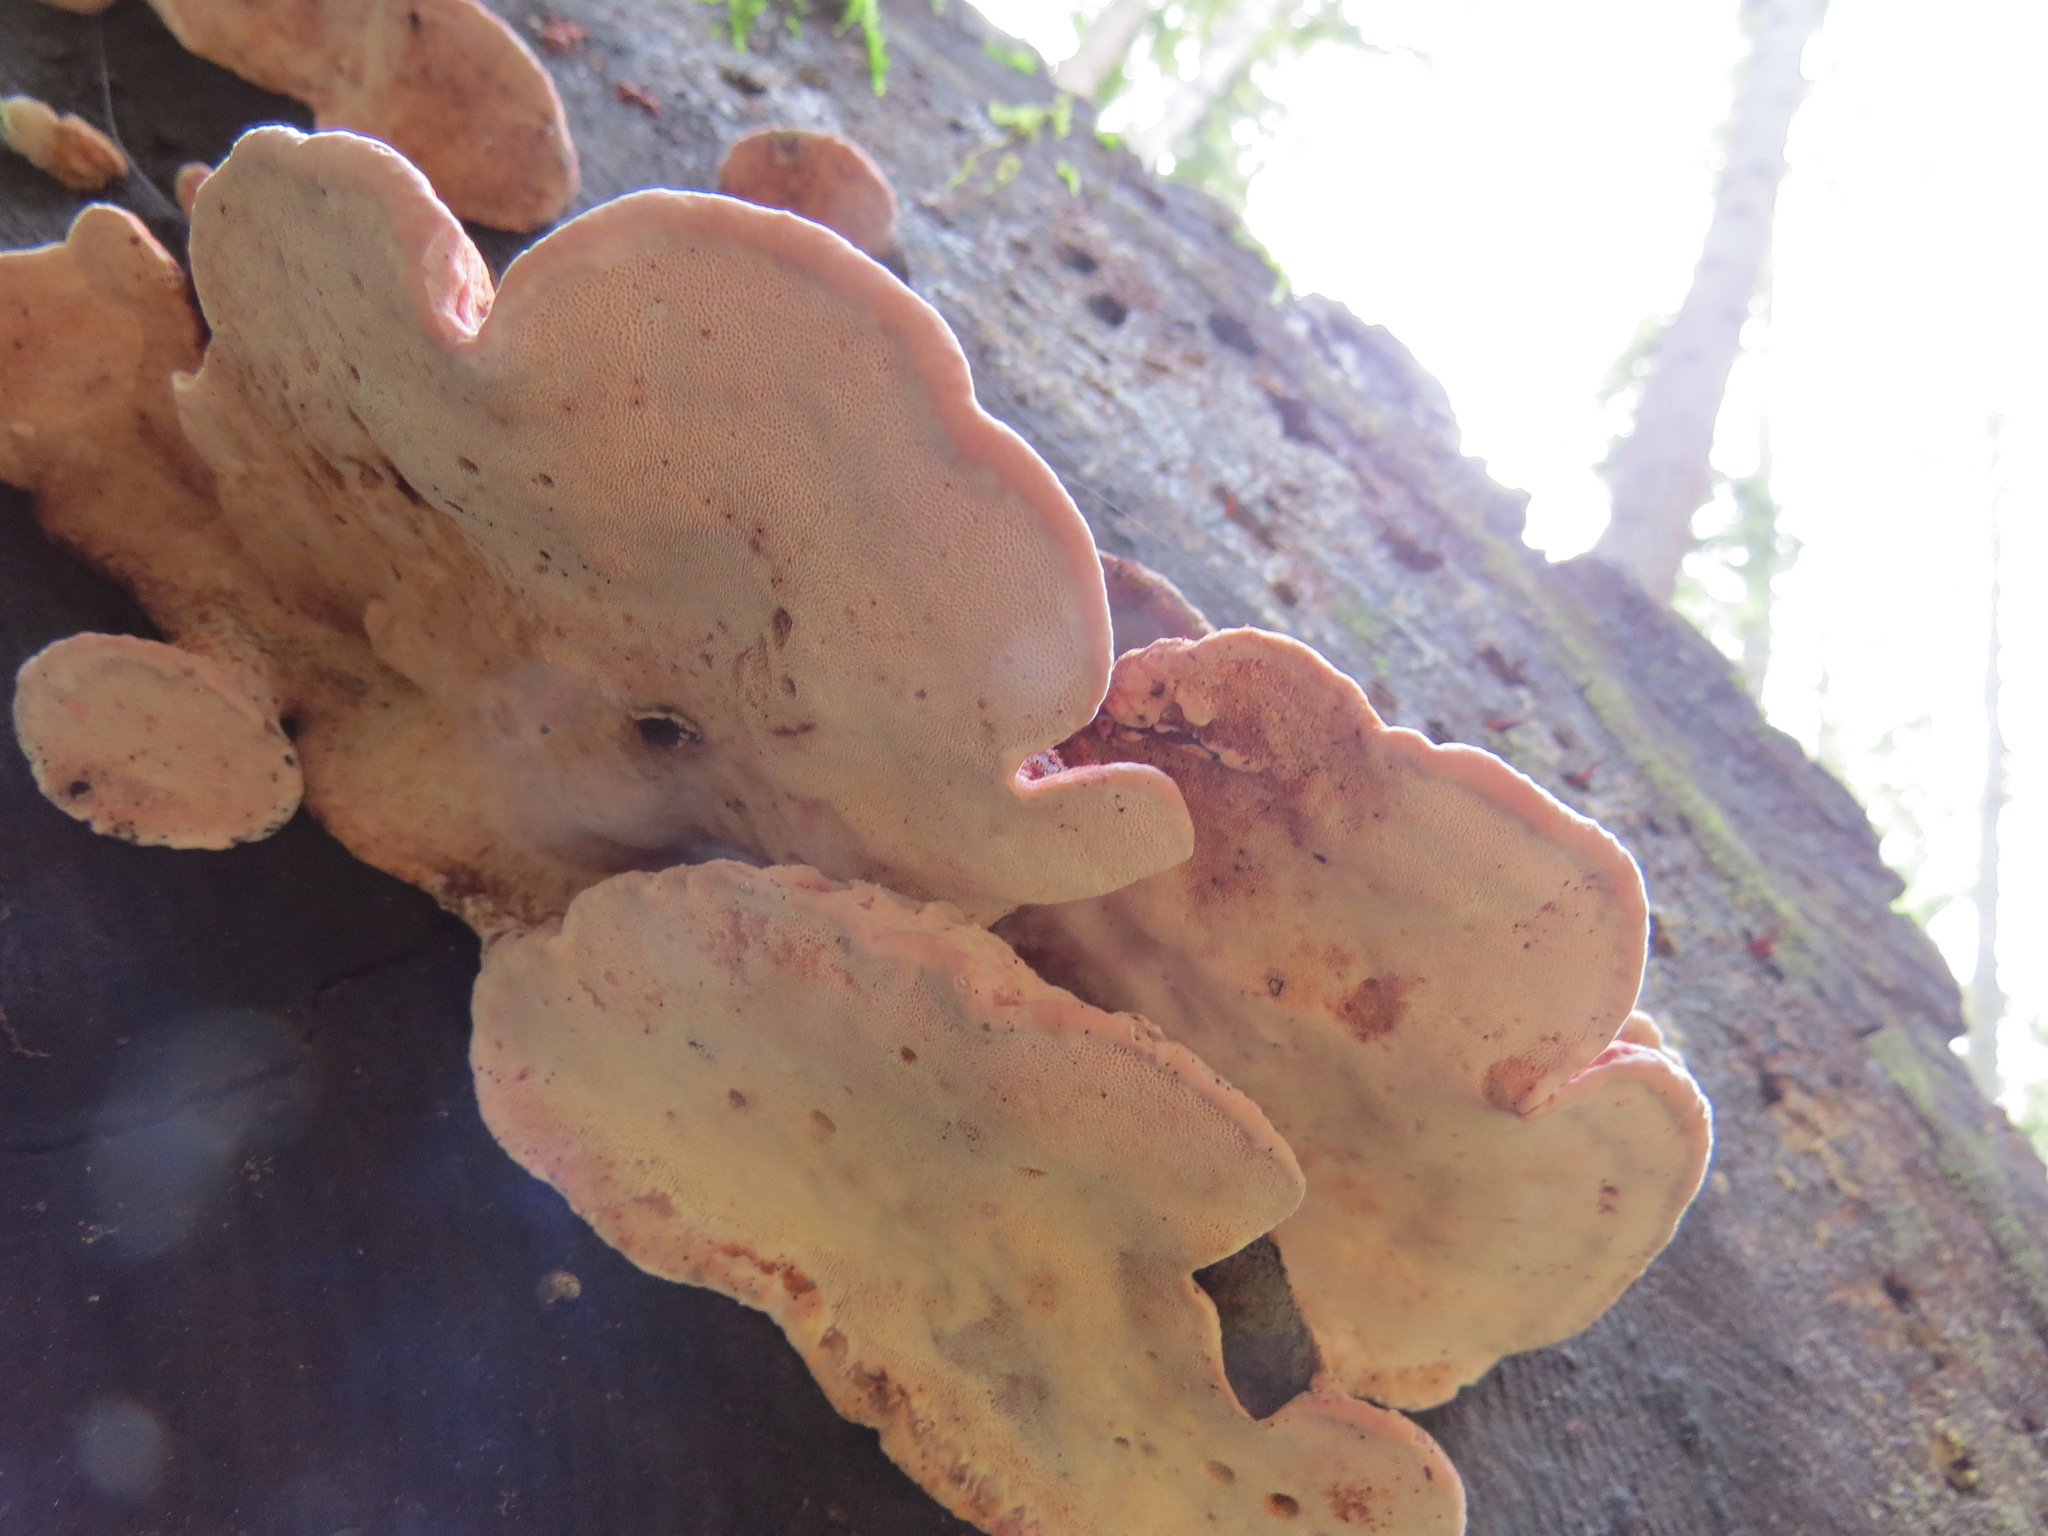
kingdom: Fungi
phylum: Basidiomycota
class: Agaricomycetes
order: Polyporales
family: Fomitopsidaceae
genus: Rhodofomes
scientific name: Rhodofomes cajanderi
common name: Rosy conk
